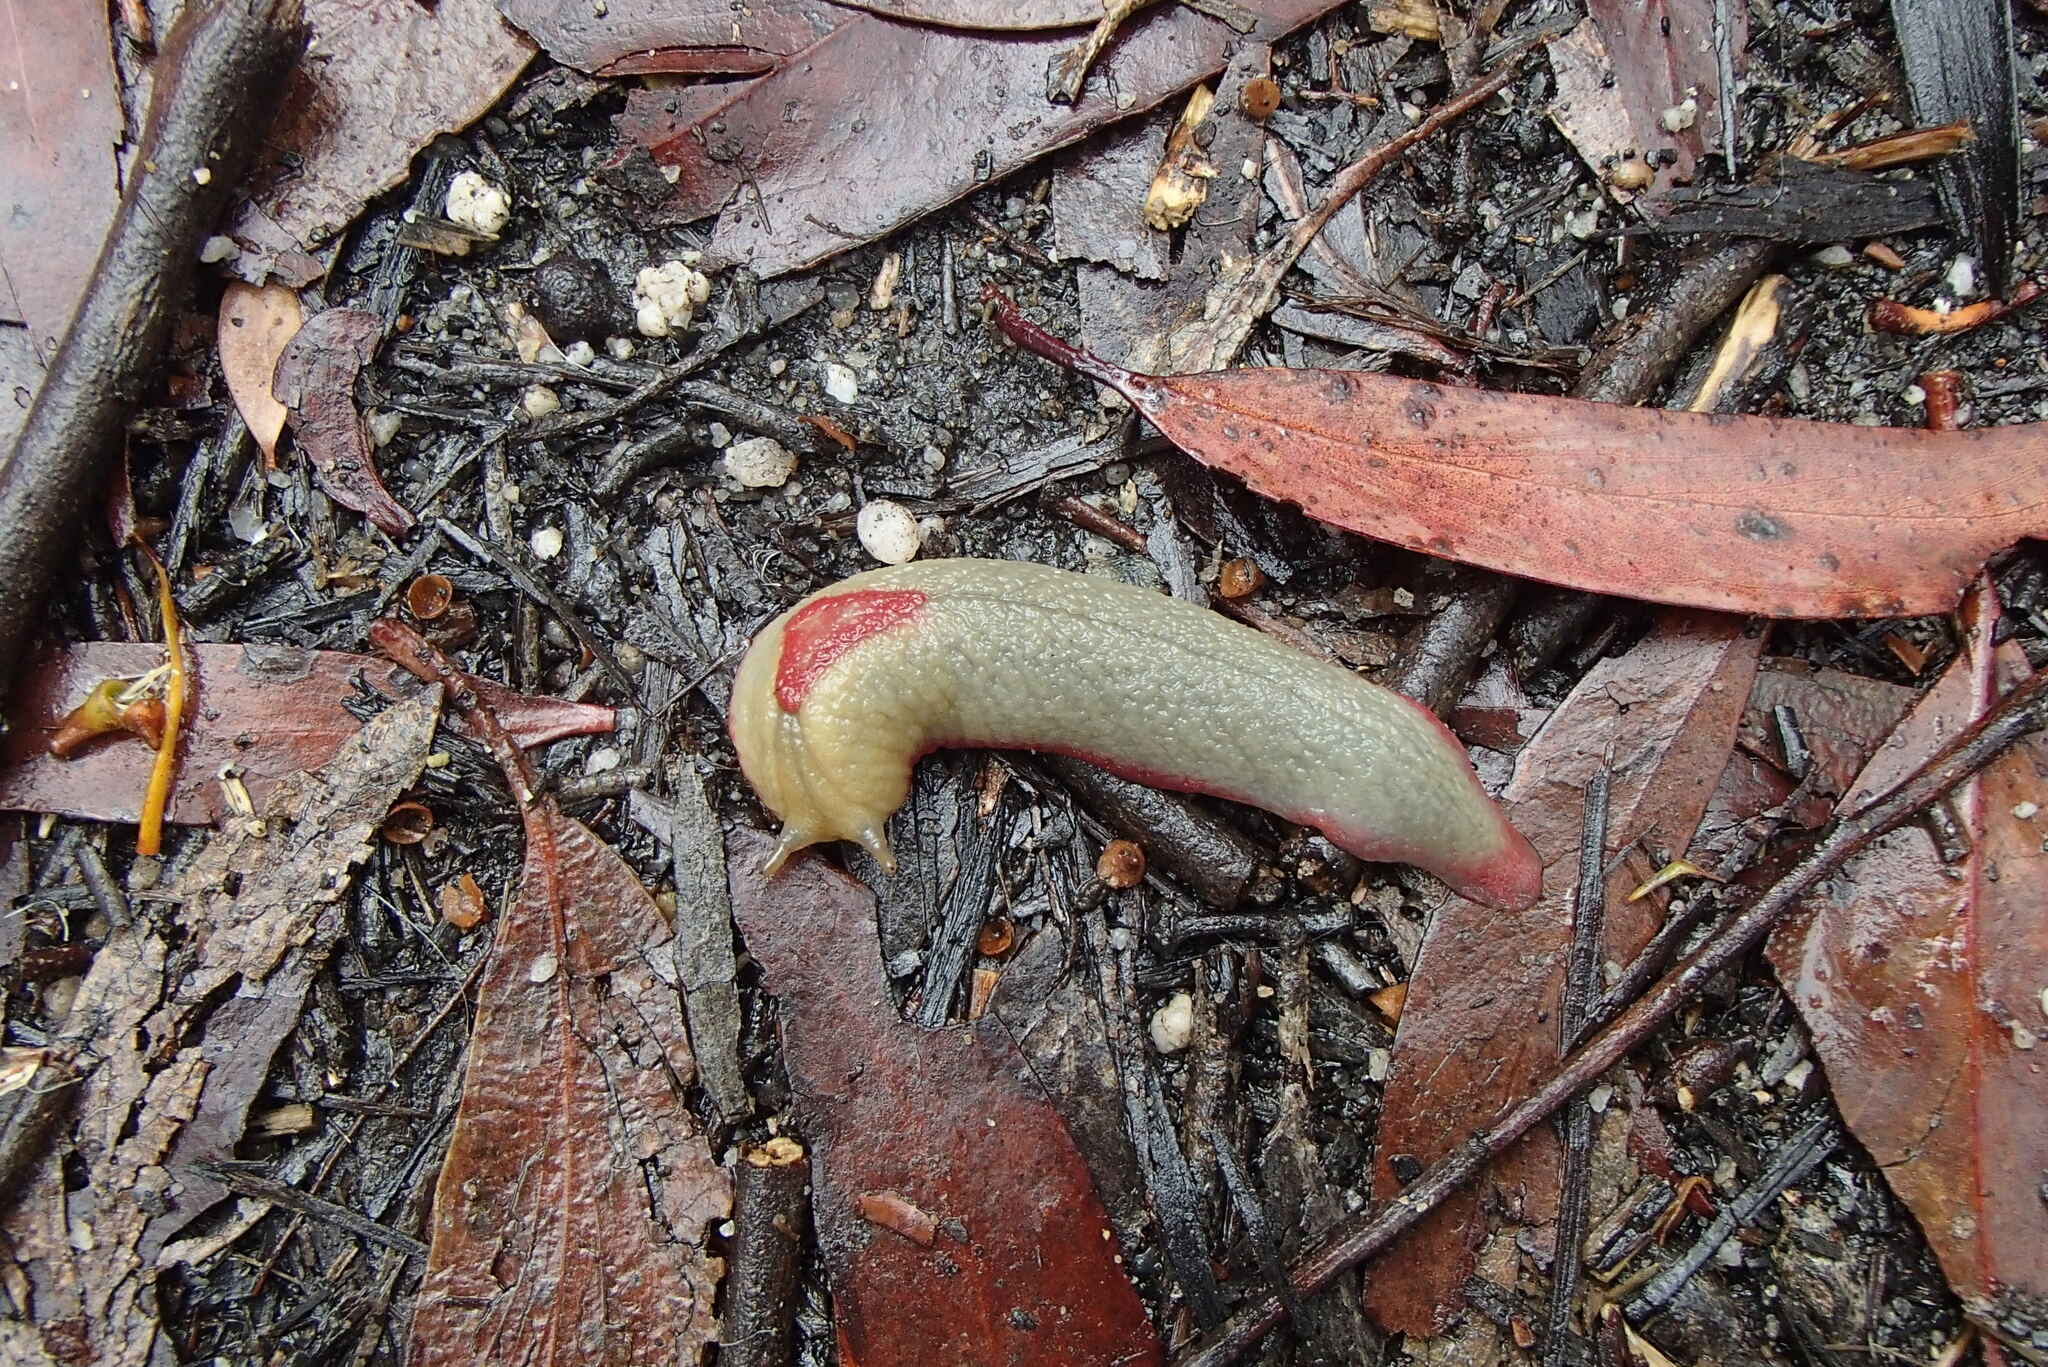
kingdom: Animalia
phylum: Mollusca
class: Gastropoda
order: Stylommatophora
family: Athoracophoridae
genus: Triboniophorus
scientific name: Triboniophorus graeffei
